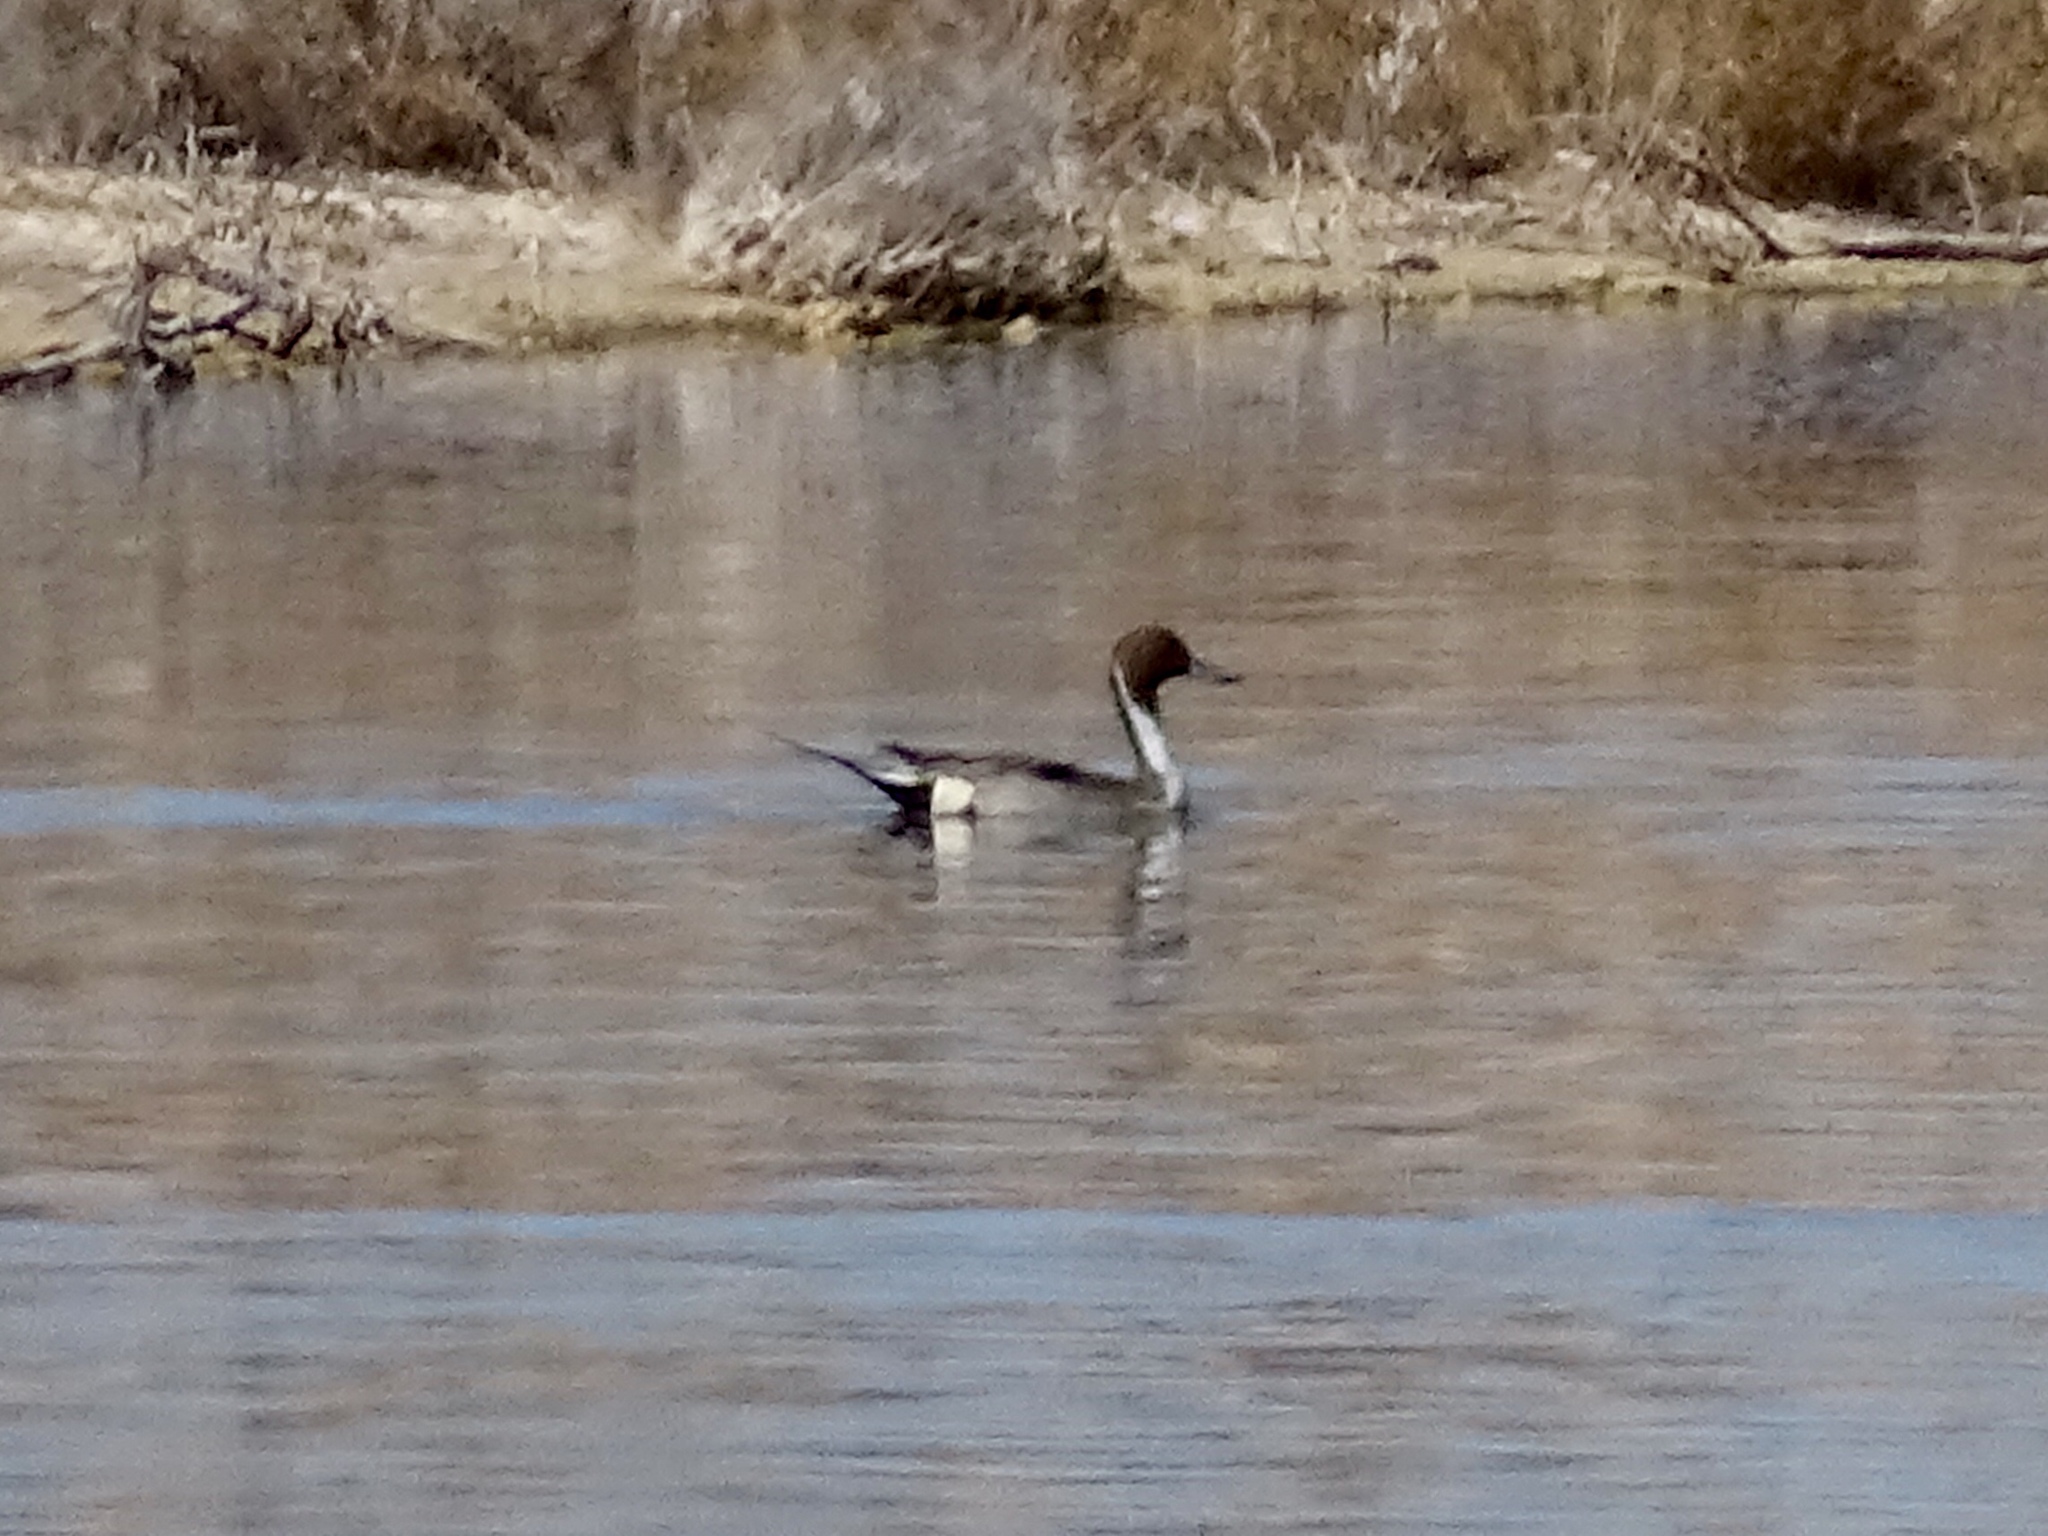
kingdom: Animalia
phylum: Chordata
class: Aves
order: Anseriformes
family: Anatidae
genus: Anas
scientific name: Anas acuta
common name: Northern pintail
